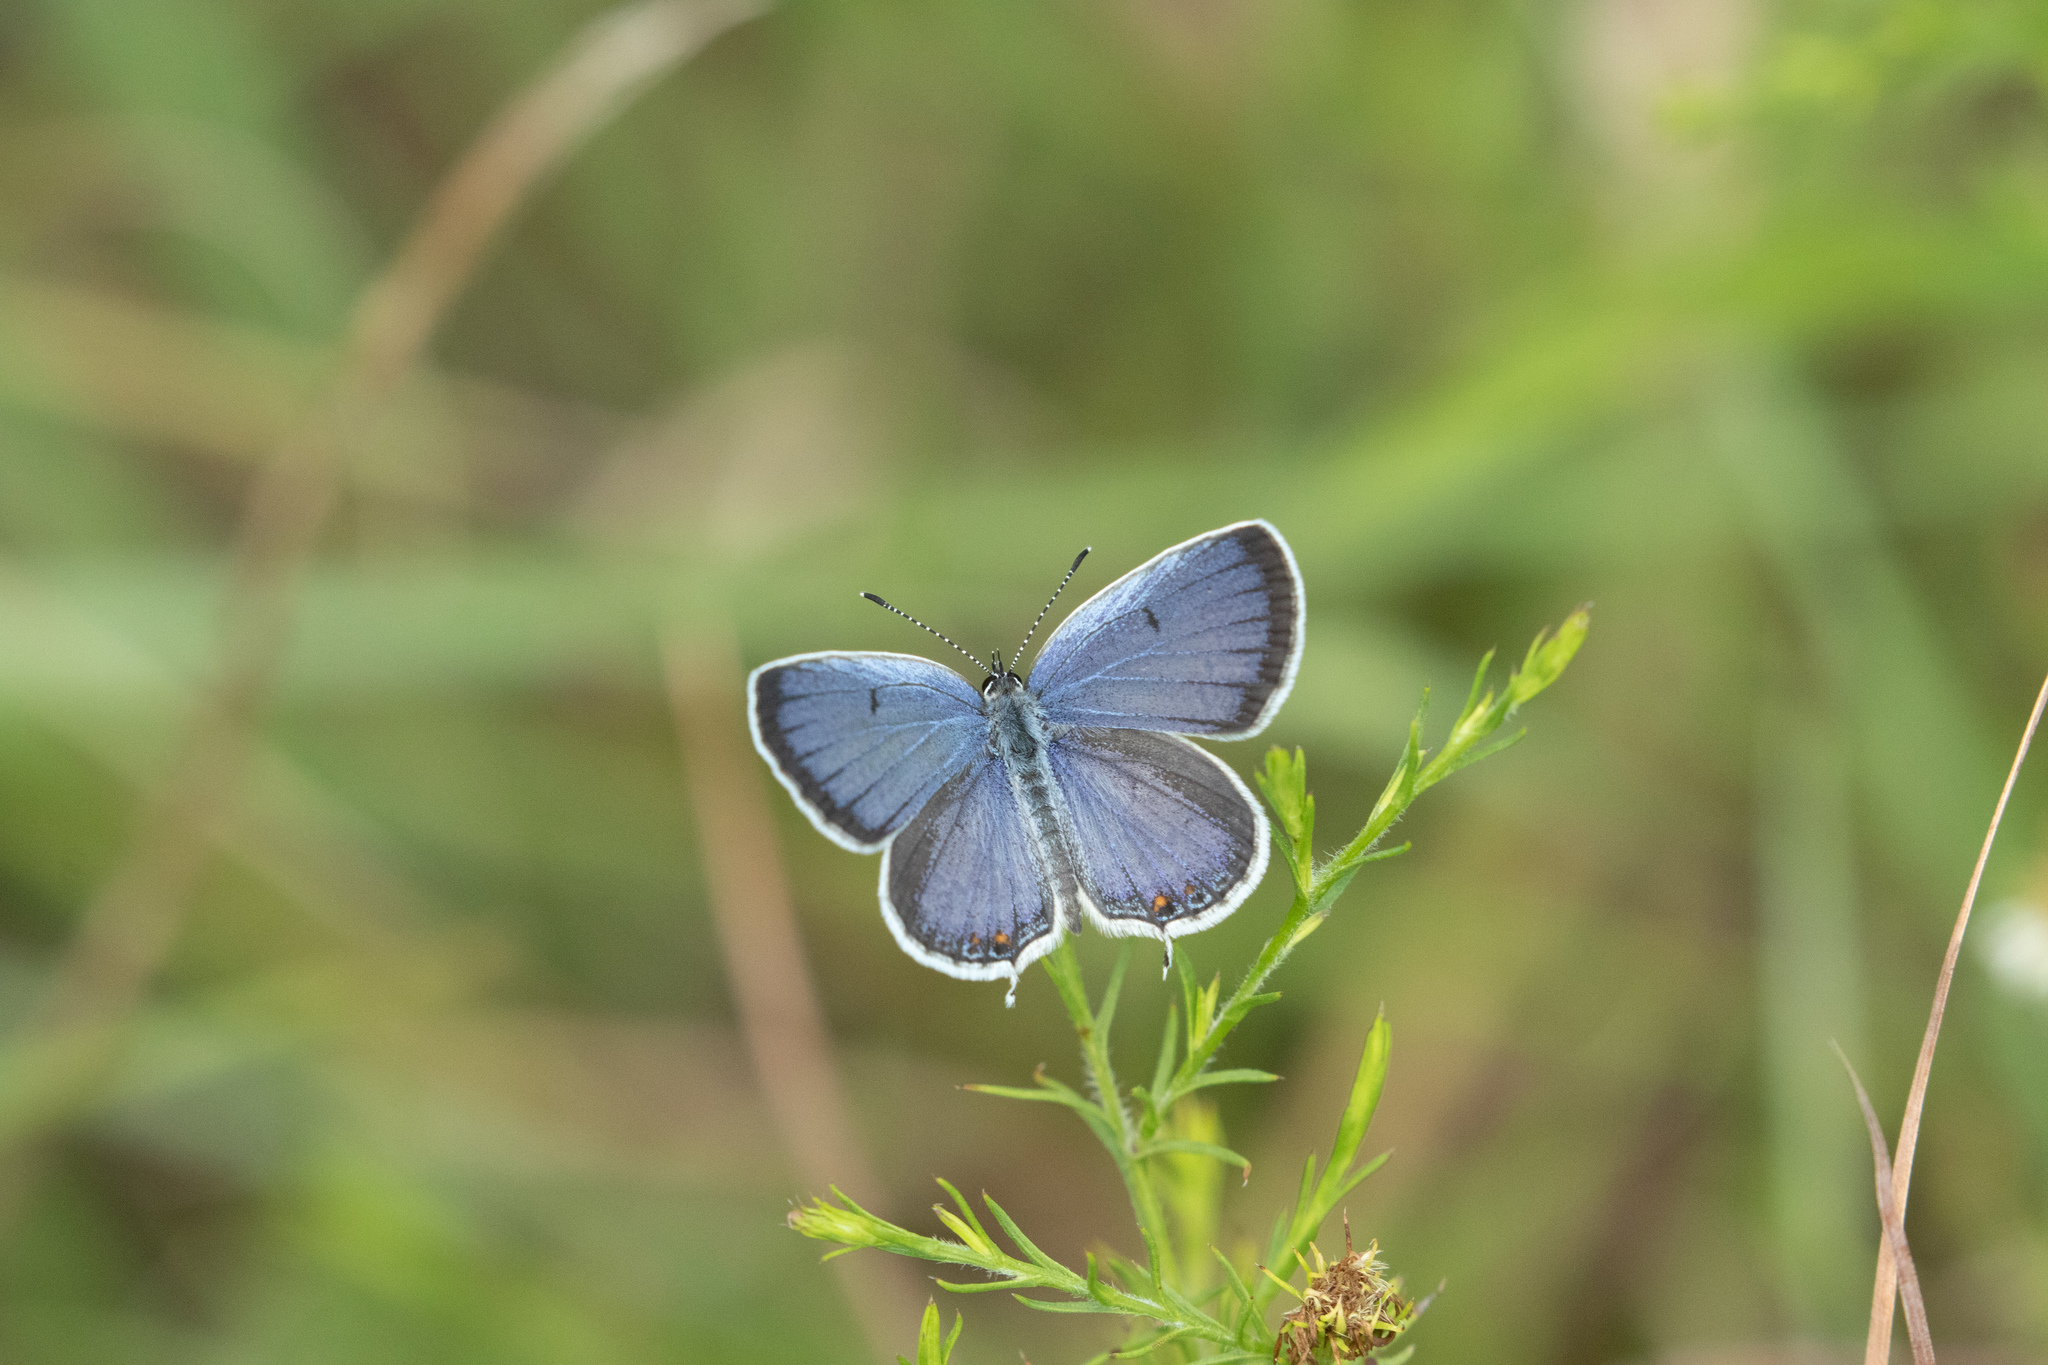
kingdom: Animalia
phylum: Arthropoda
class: Insecta
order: Lepidoptera
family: Lycaenidae
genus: Elkalyce
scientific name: Elkalyce comyntas
